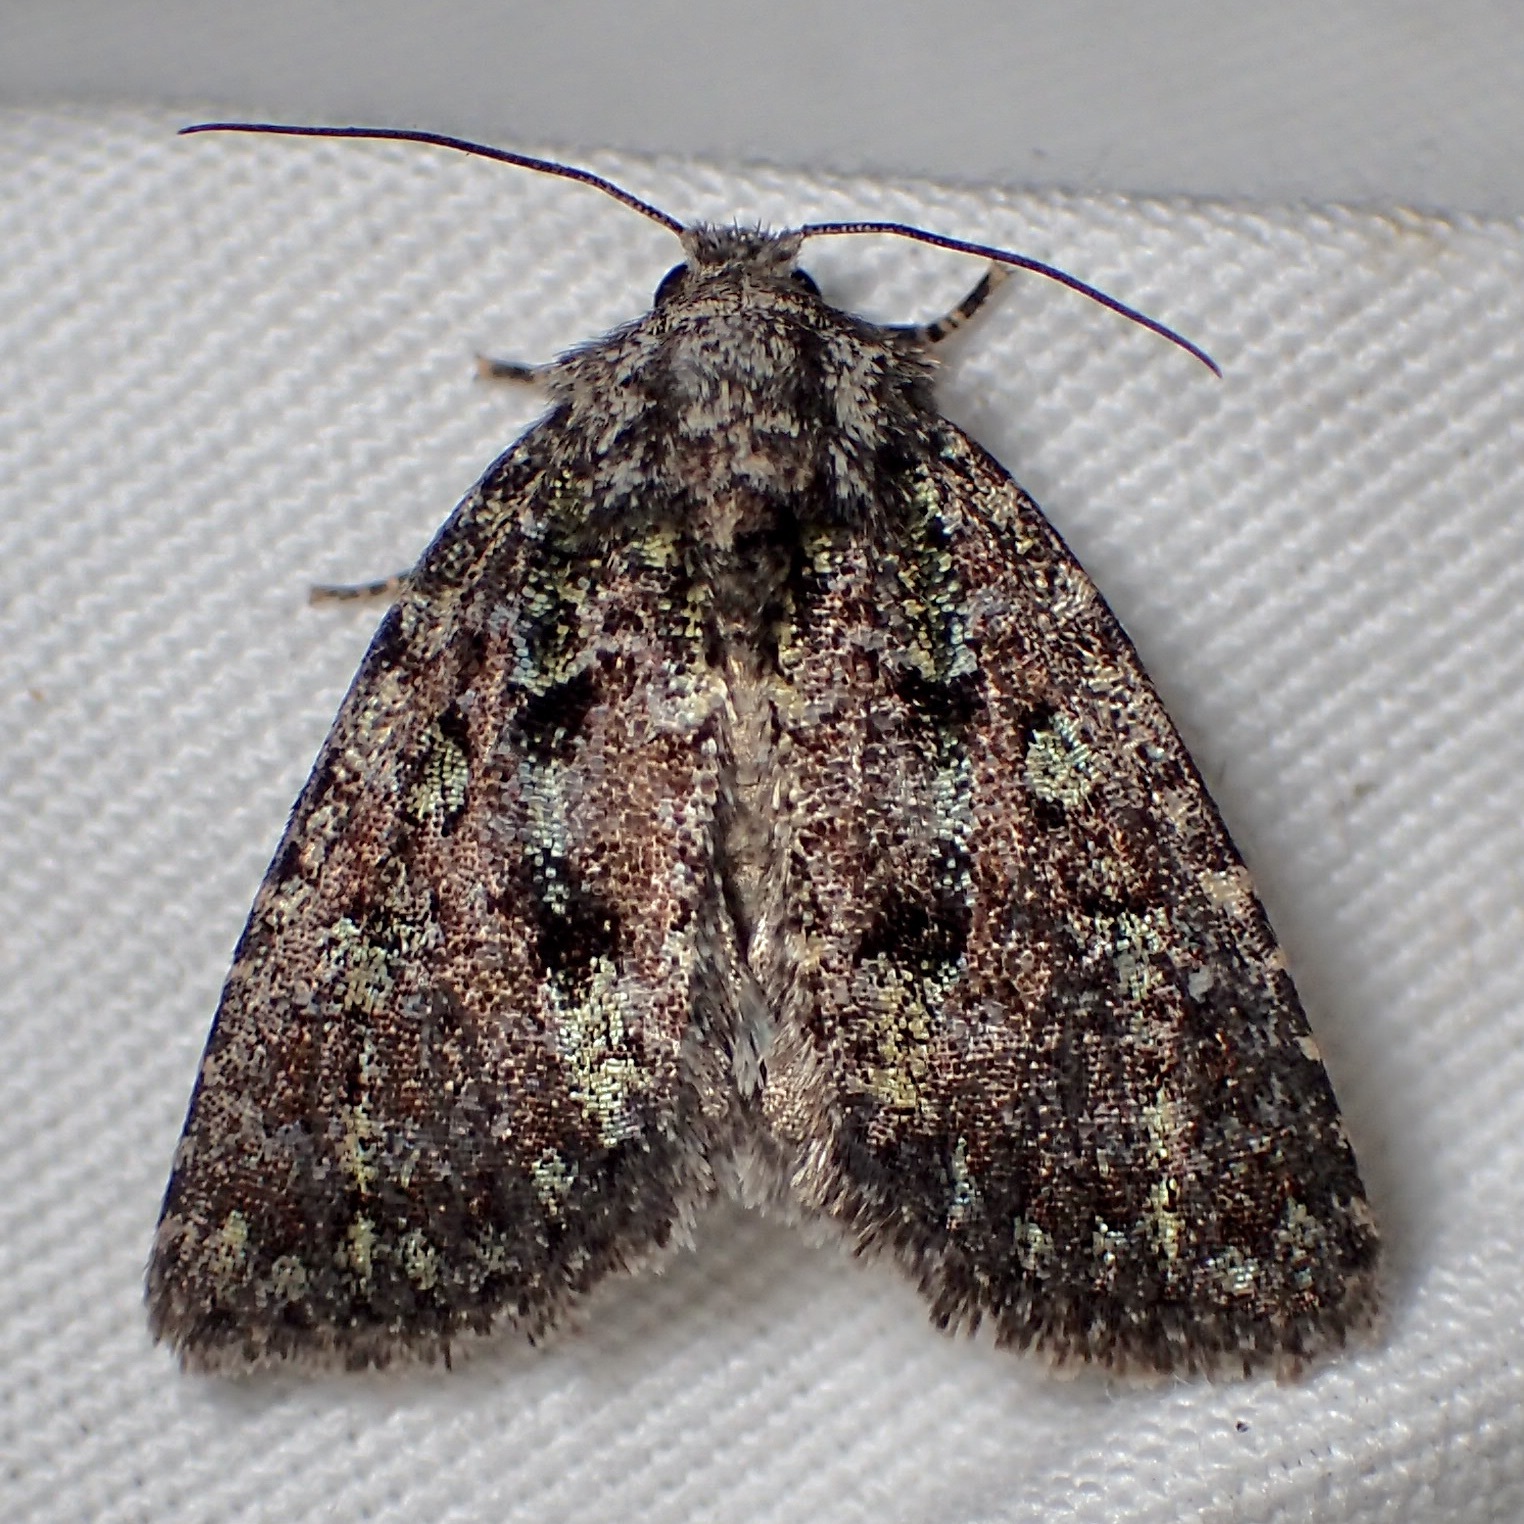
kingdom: Animalia
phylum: Arthropoda
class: Insecta
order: Lepidoptera
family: Noctuidae
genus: Paramiana
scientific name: Paramiana smaragdina
